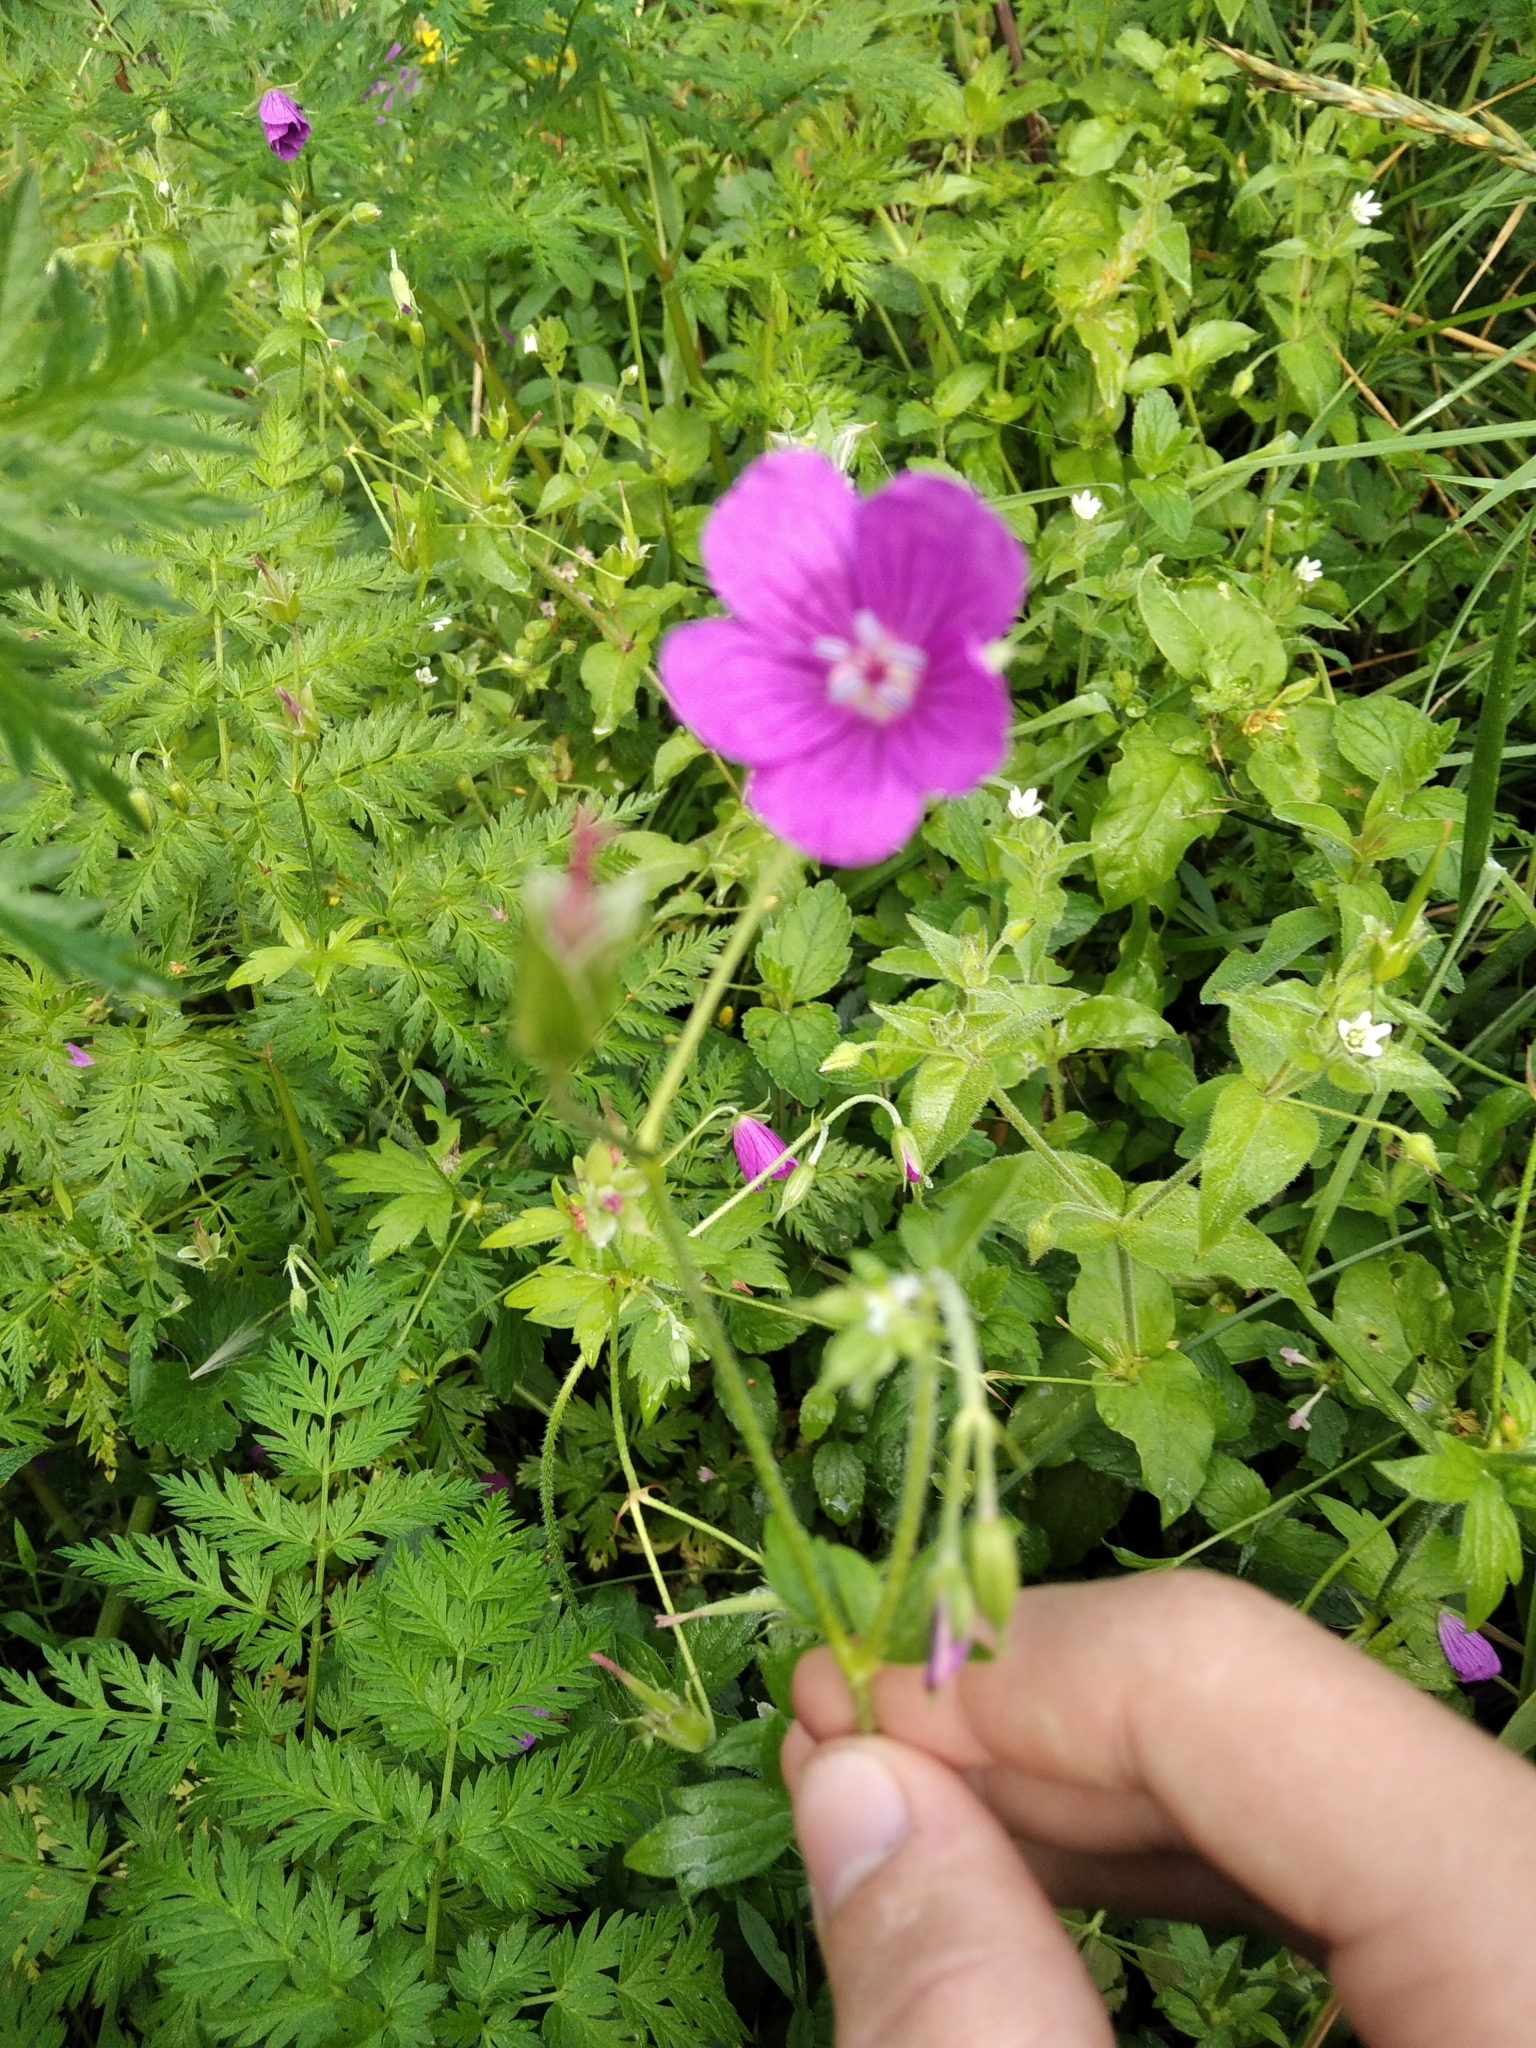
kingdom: Plantae
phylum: Tracheophyta
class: Magnoliopsida
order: Geraniales
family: Geraniaceae
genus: Geranium
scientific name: Geranium palustre
